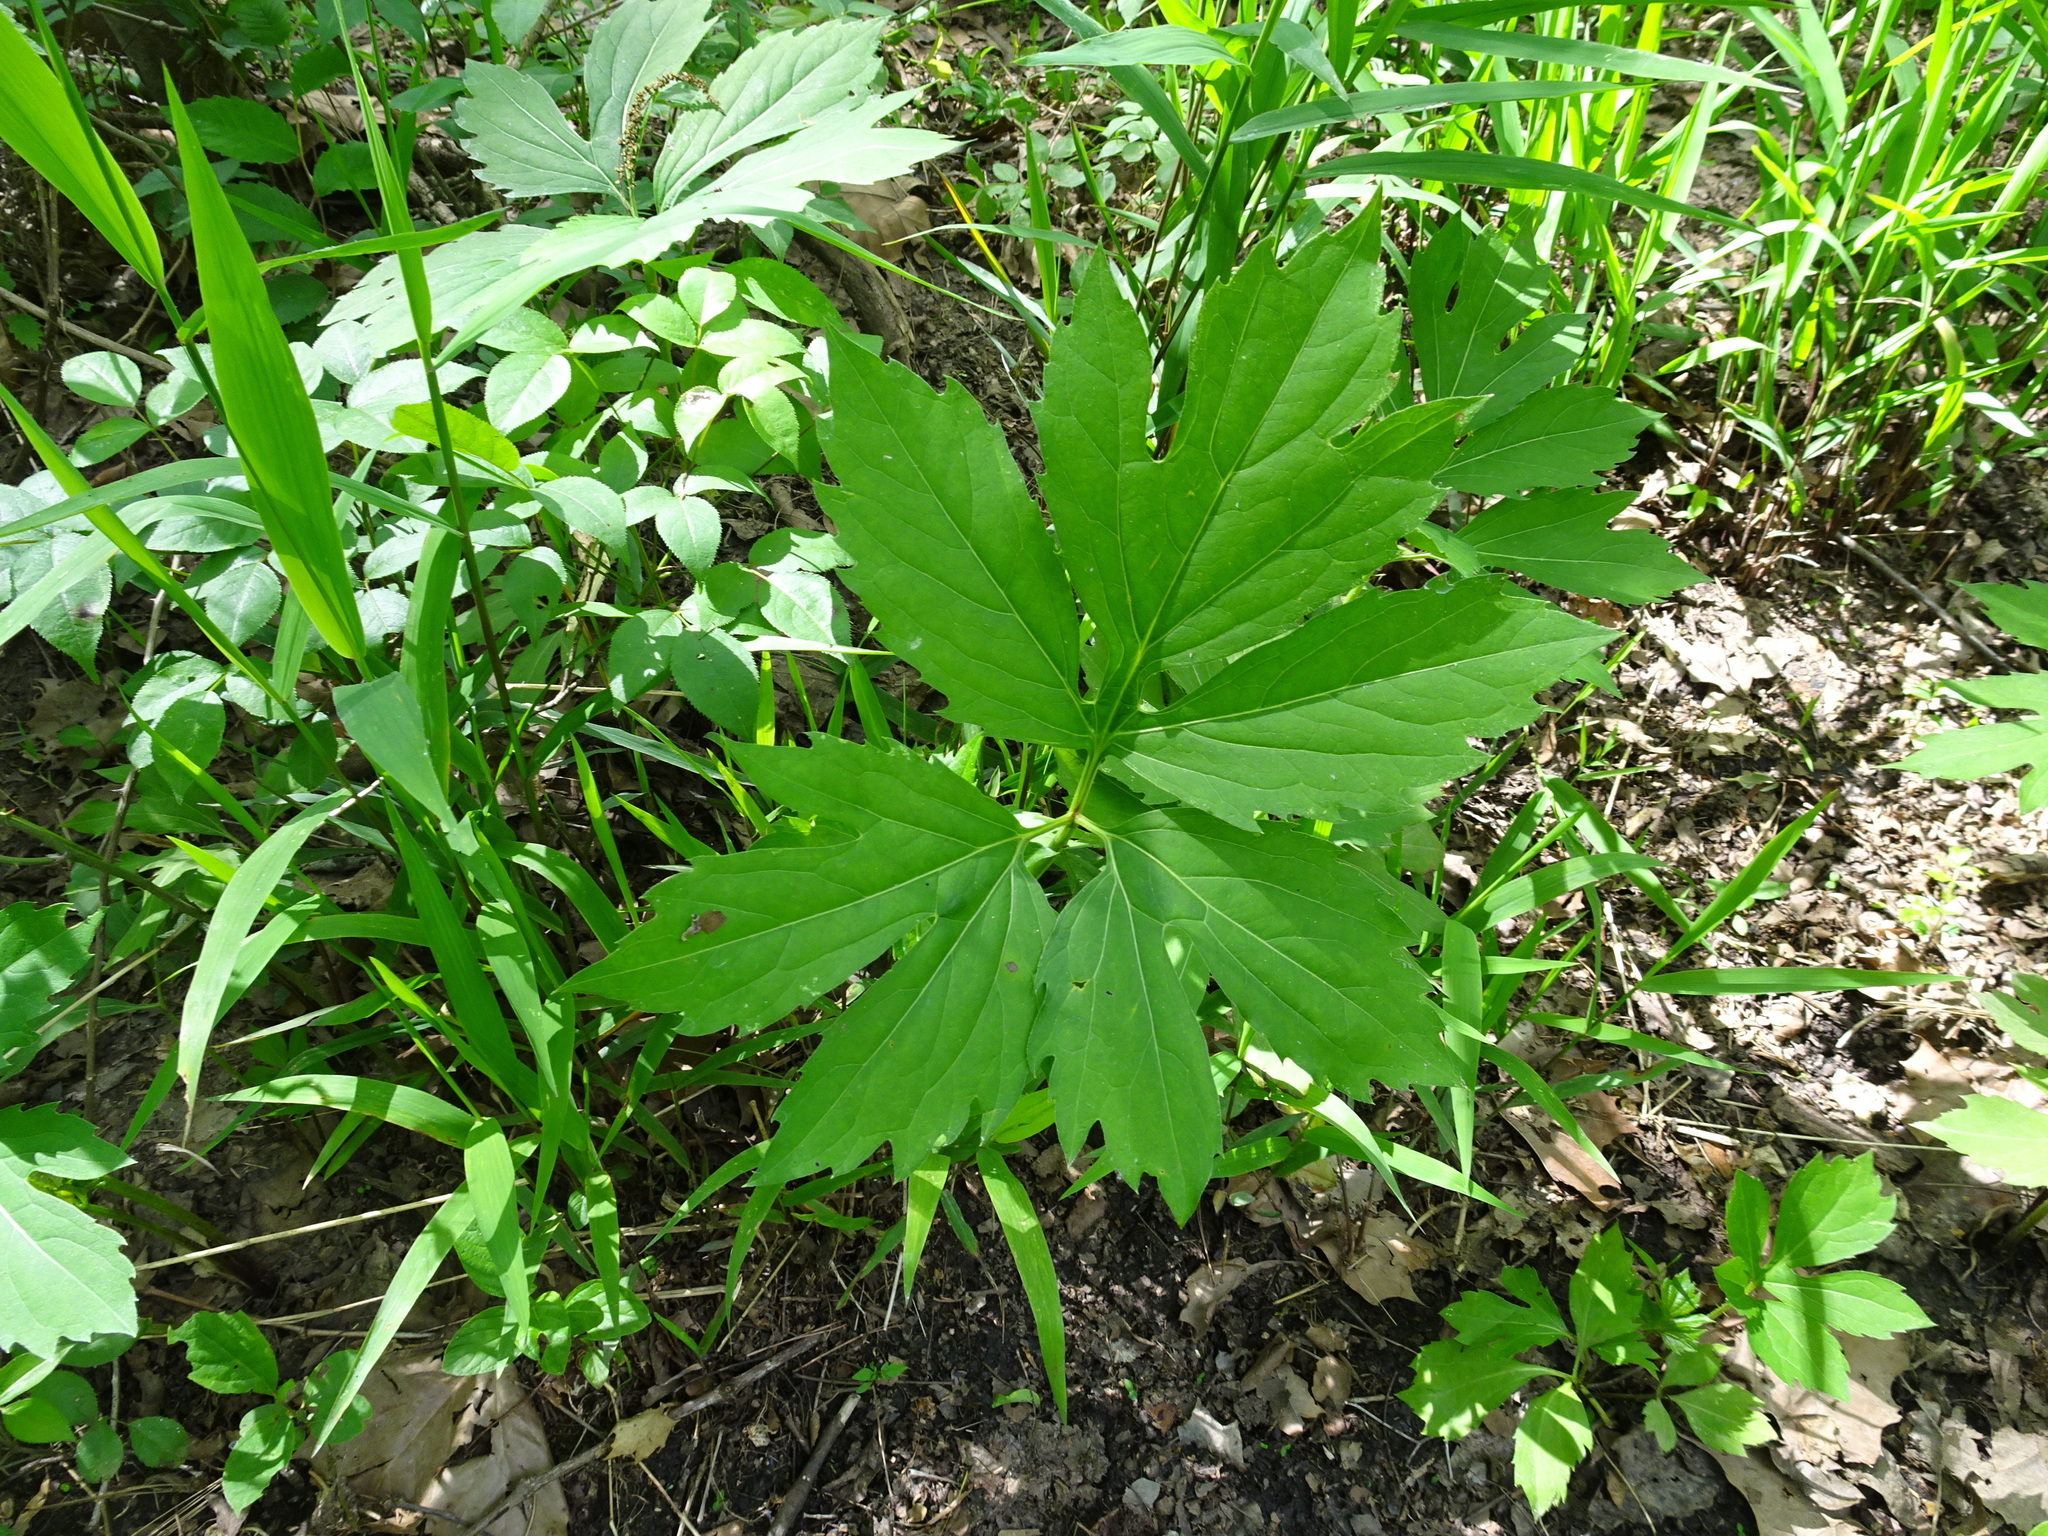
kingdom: Plantae
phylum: Tracheophyta
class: Magnoliopsida
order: Asterales
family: Asteraceae
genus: Rudbeckia
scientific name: Rudbeckia laciniata
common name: Coneflower
